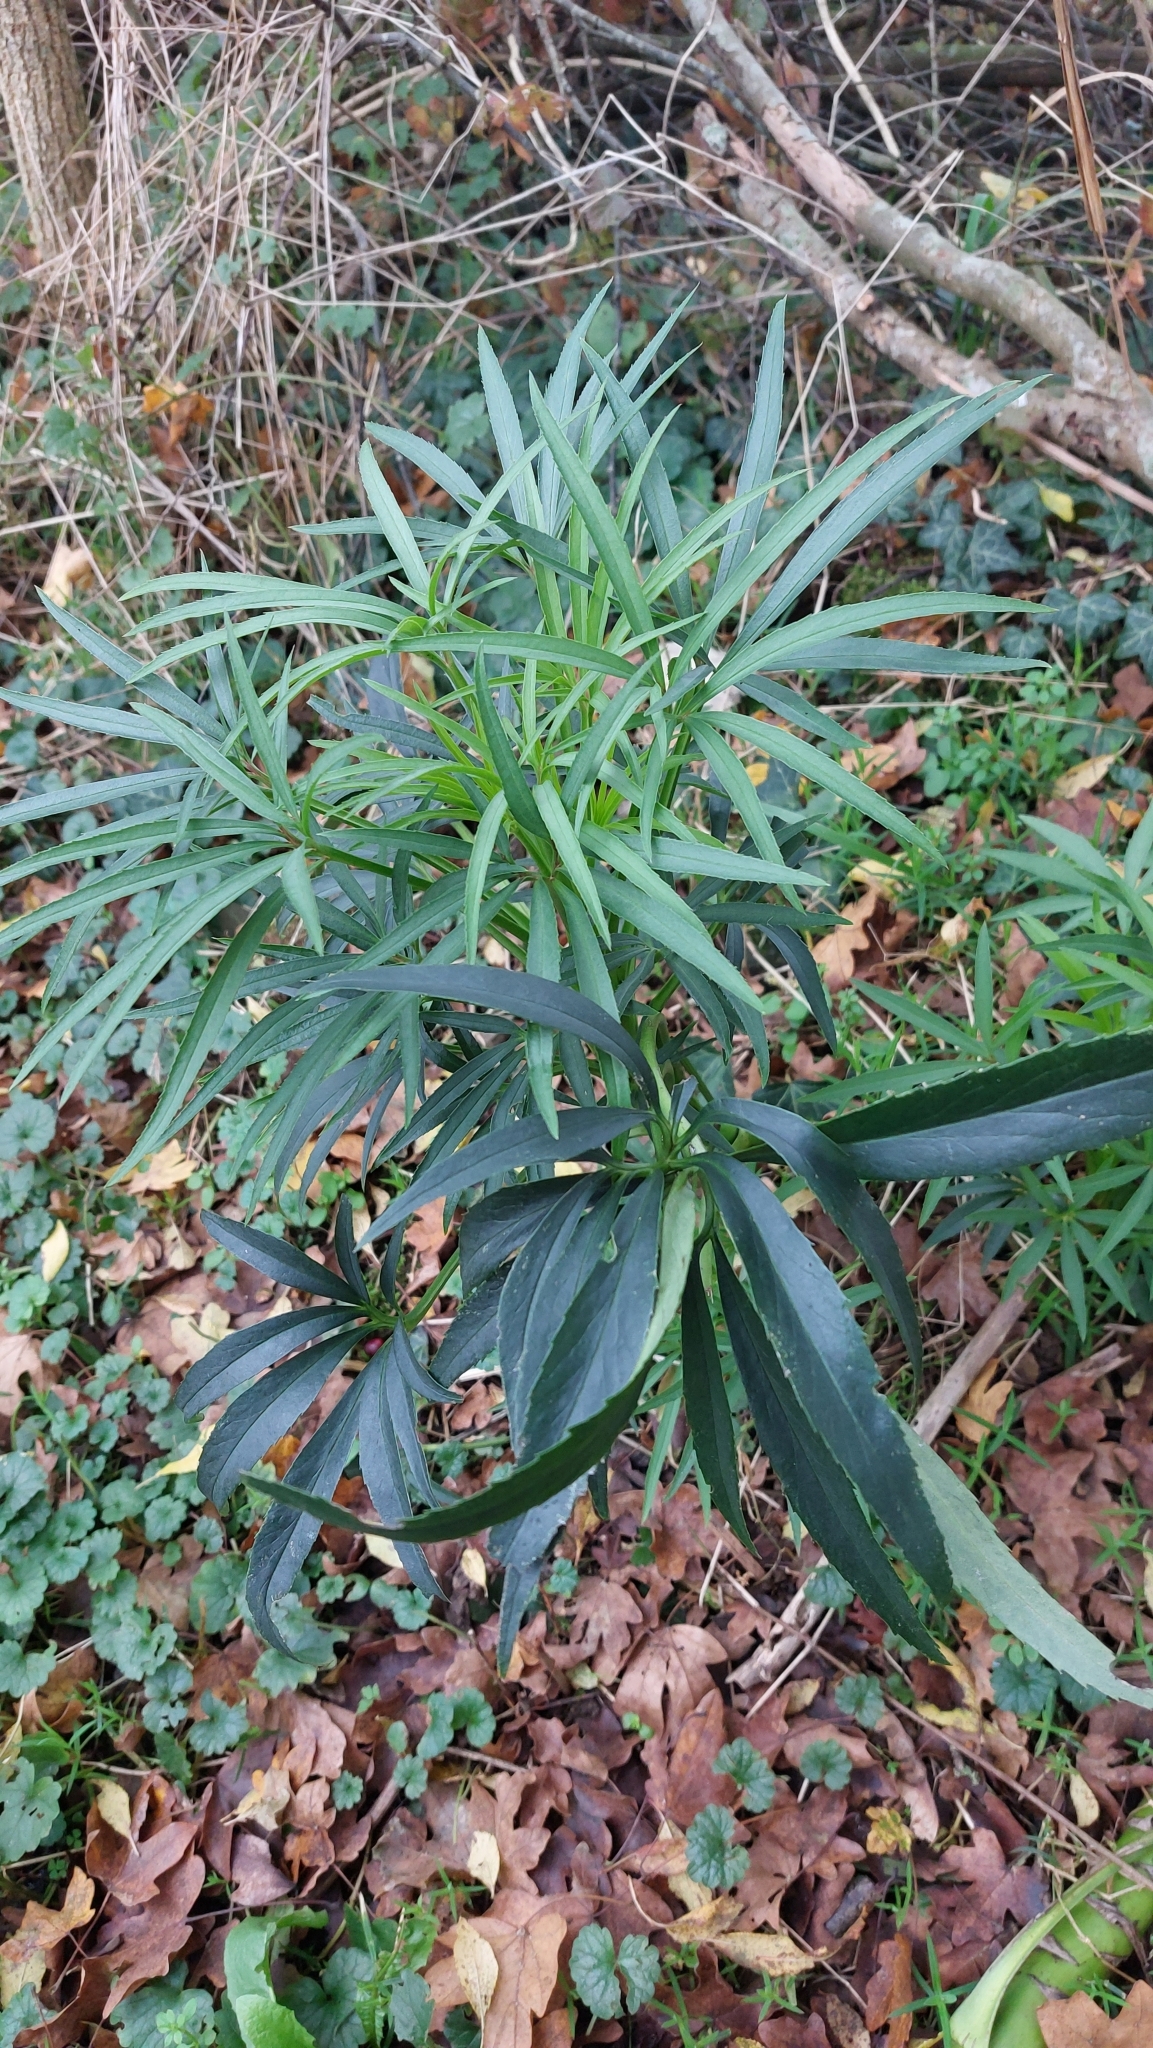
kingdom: Plantae
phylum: Tracheophyta
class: Magnoliopsida
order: Ranunculales
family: Ranunculaceae
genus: Helleborus
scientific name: Helleborus foetidus
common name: Stinking hellebore
